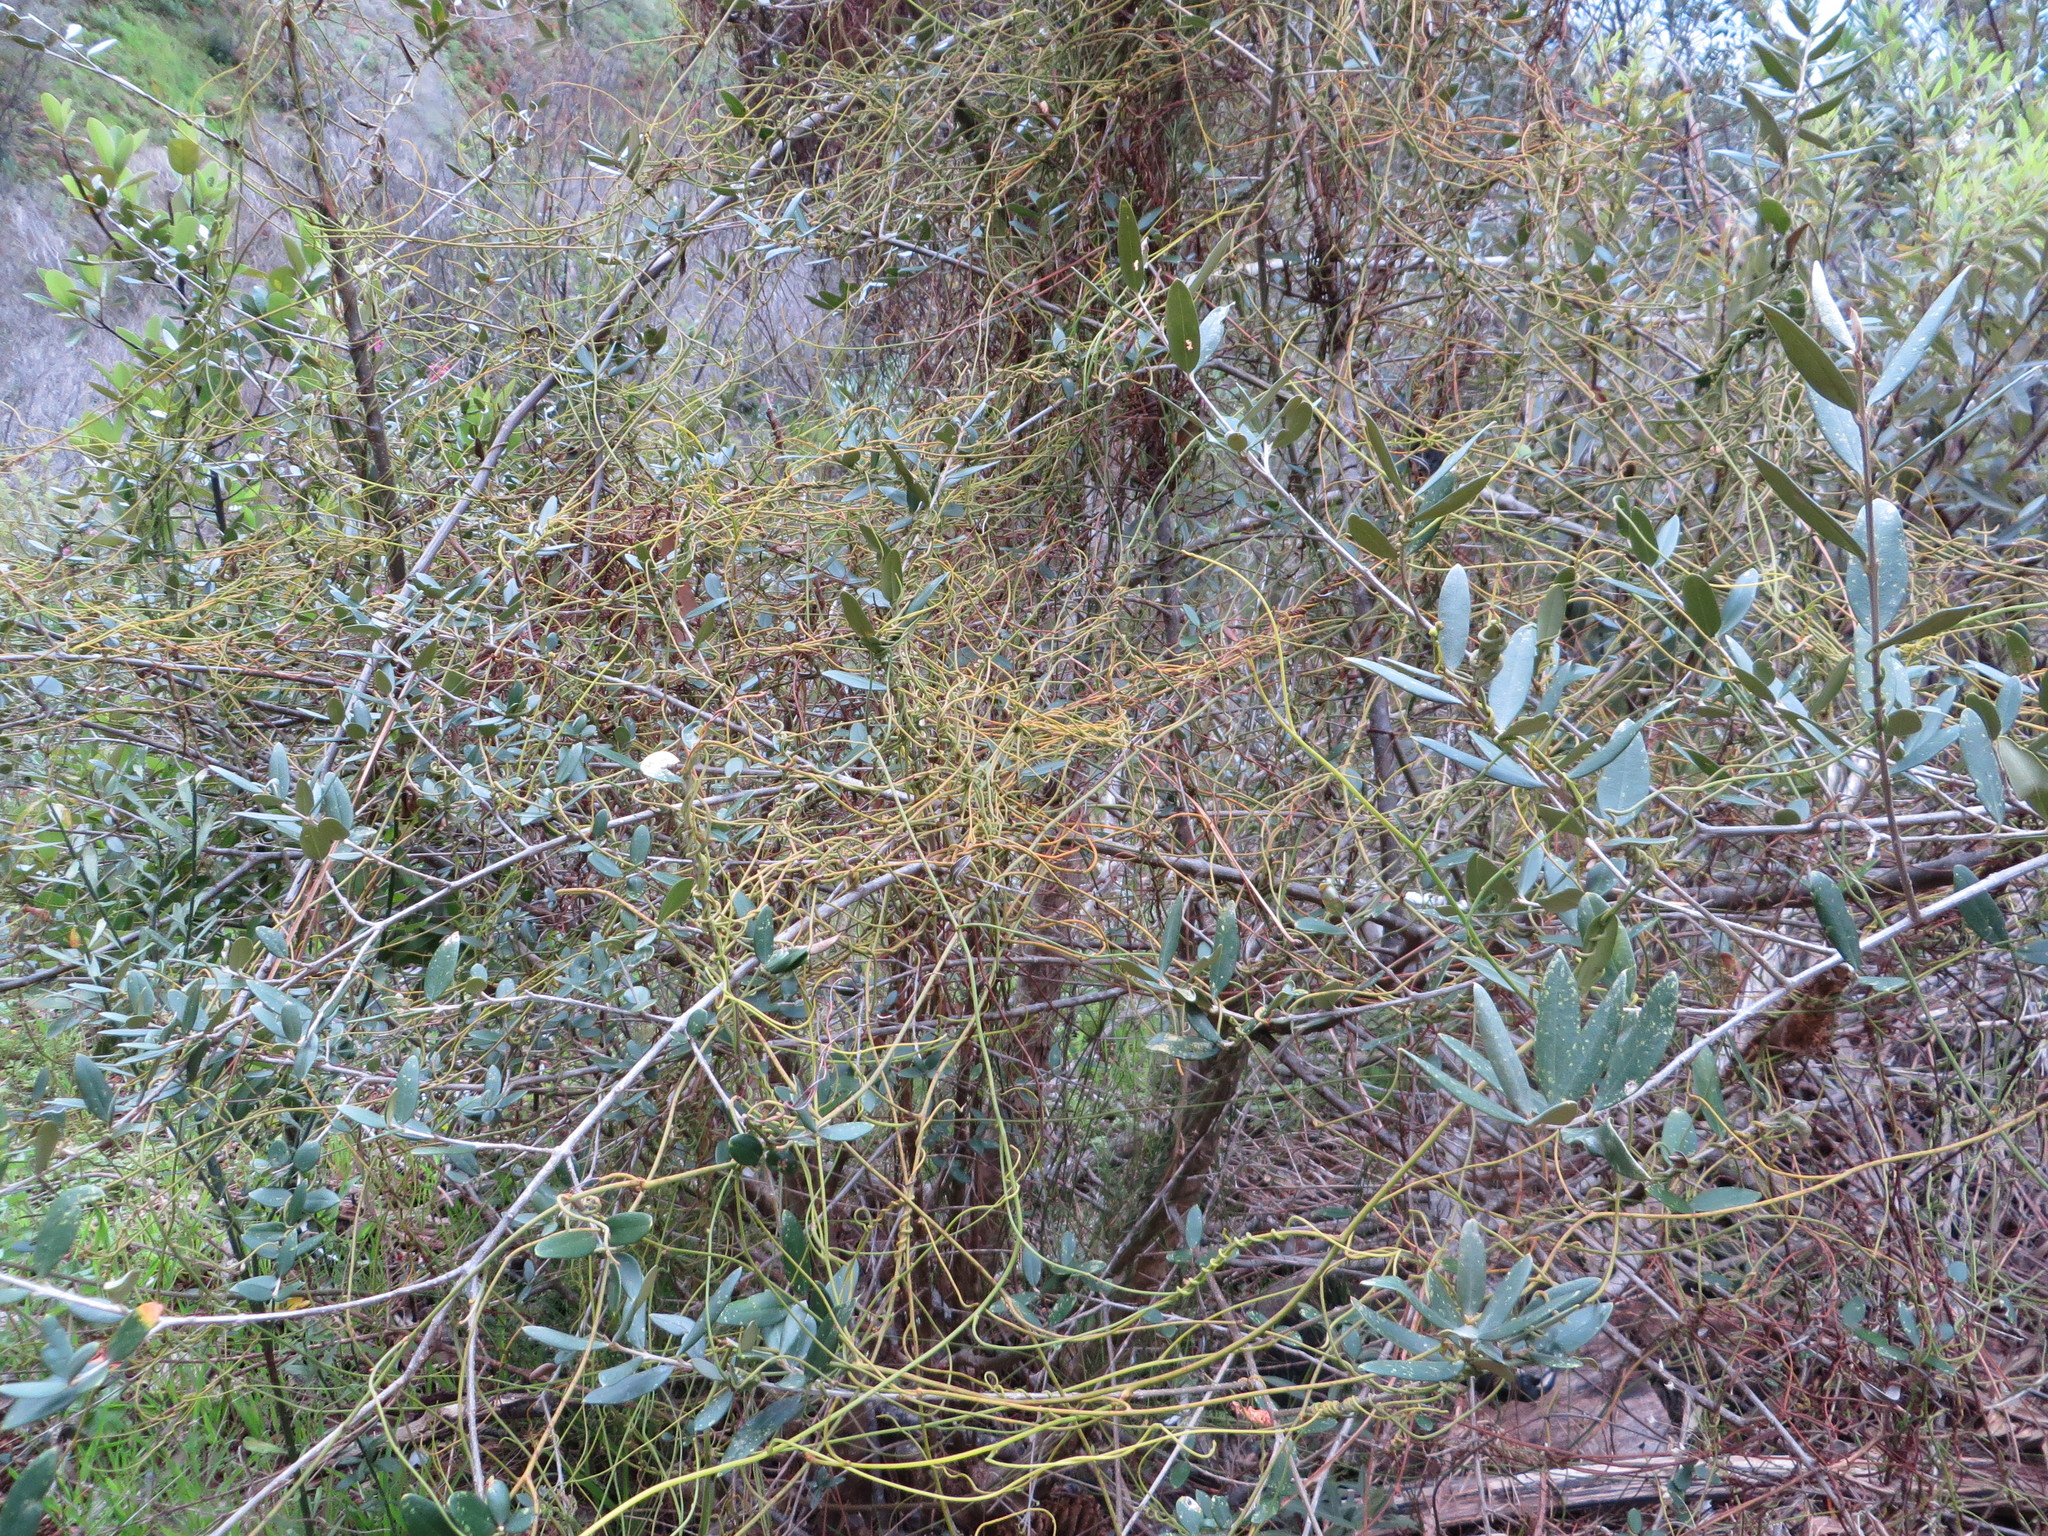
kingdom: Plantae
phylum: Tracheophyta
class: Magnoliopsida
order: Laurales
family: Lauraceae
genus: Cassytha
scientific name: Cassytha ciliolata
